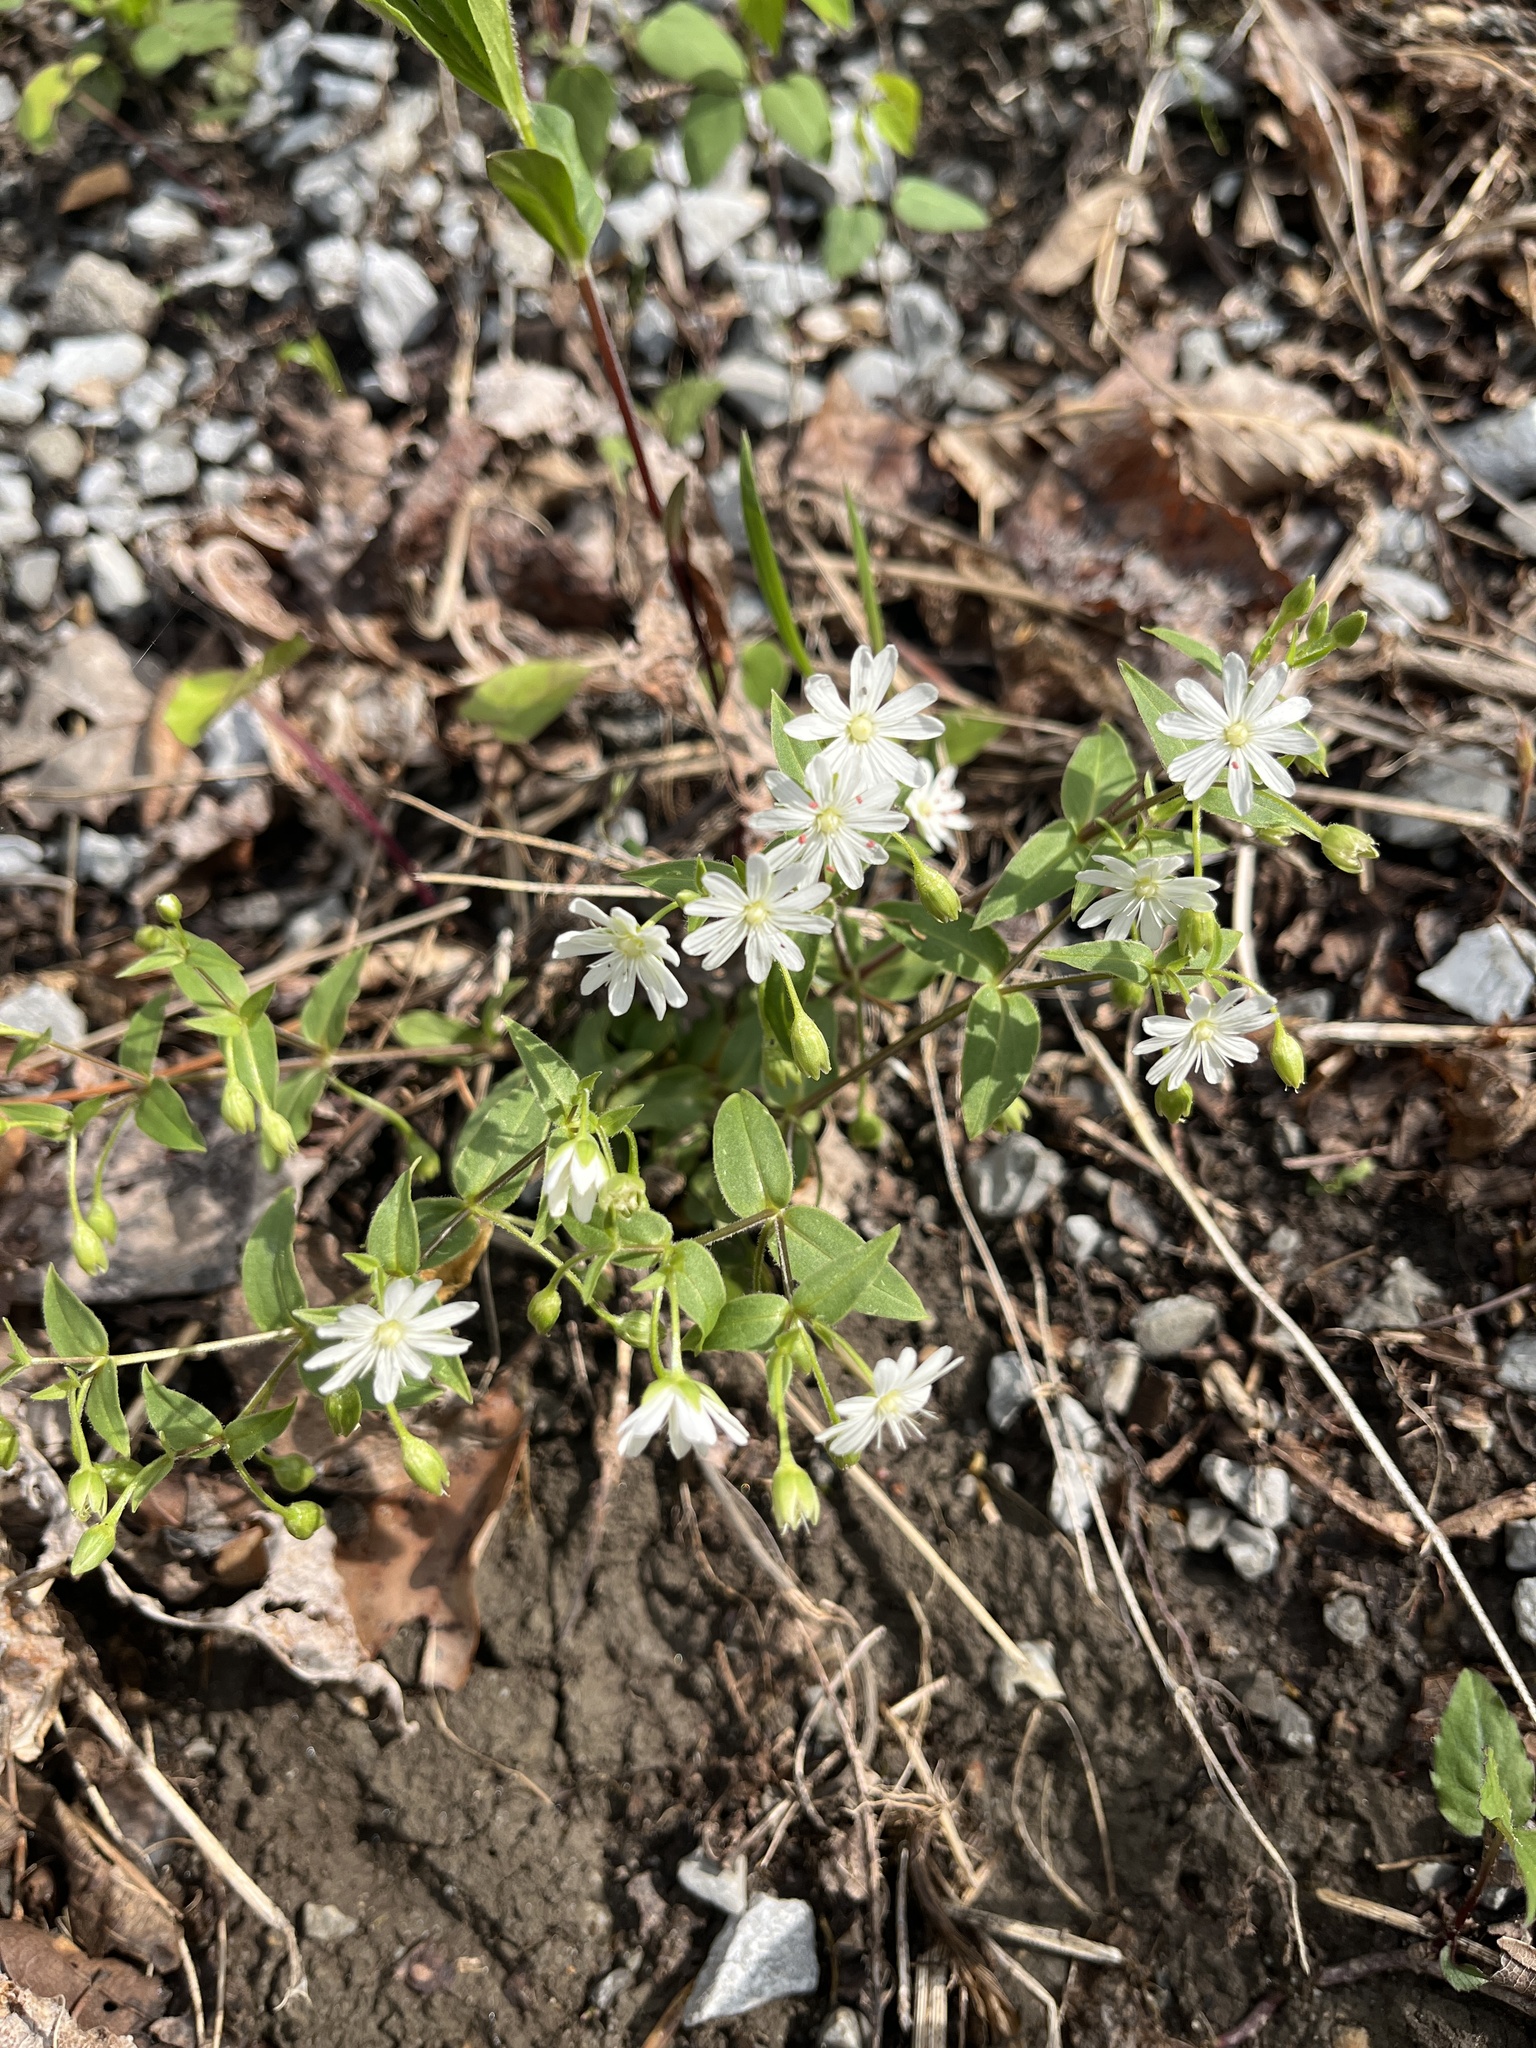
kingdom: Plantae
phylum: Tracheophyta
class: Magnoliopsida
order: Caryophyllales
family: Caryophyllaceae
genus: Stellaria
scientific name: Stellaria pubera
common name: Star chickweed
